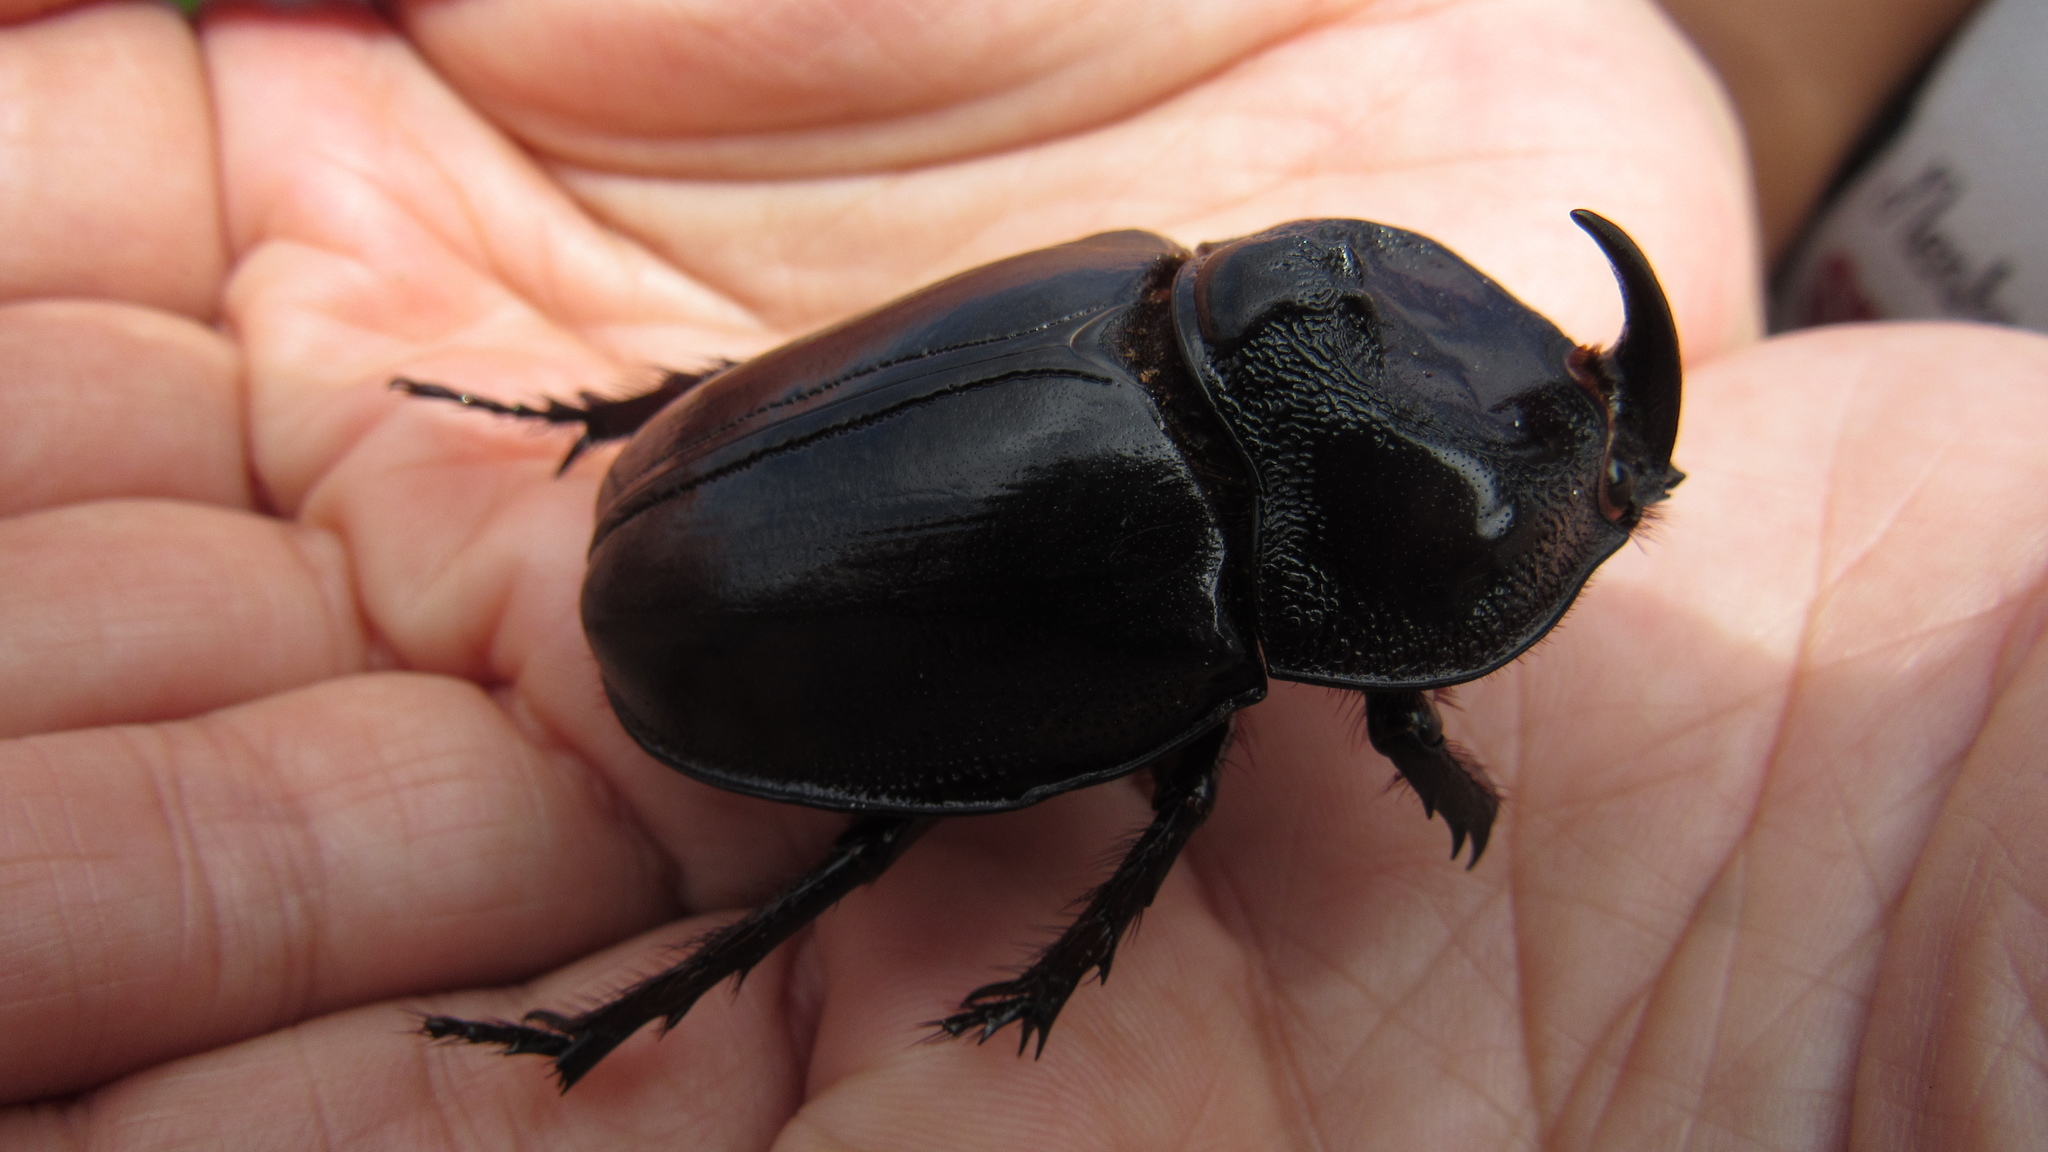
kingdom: Animalia
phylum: Arthropoda
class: Insecta
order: Coleoptera
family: Scarabaeidae
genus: Enema
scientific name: Enema pan
